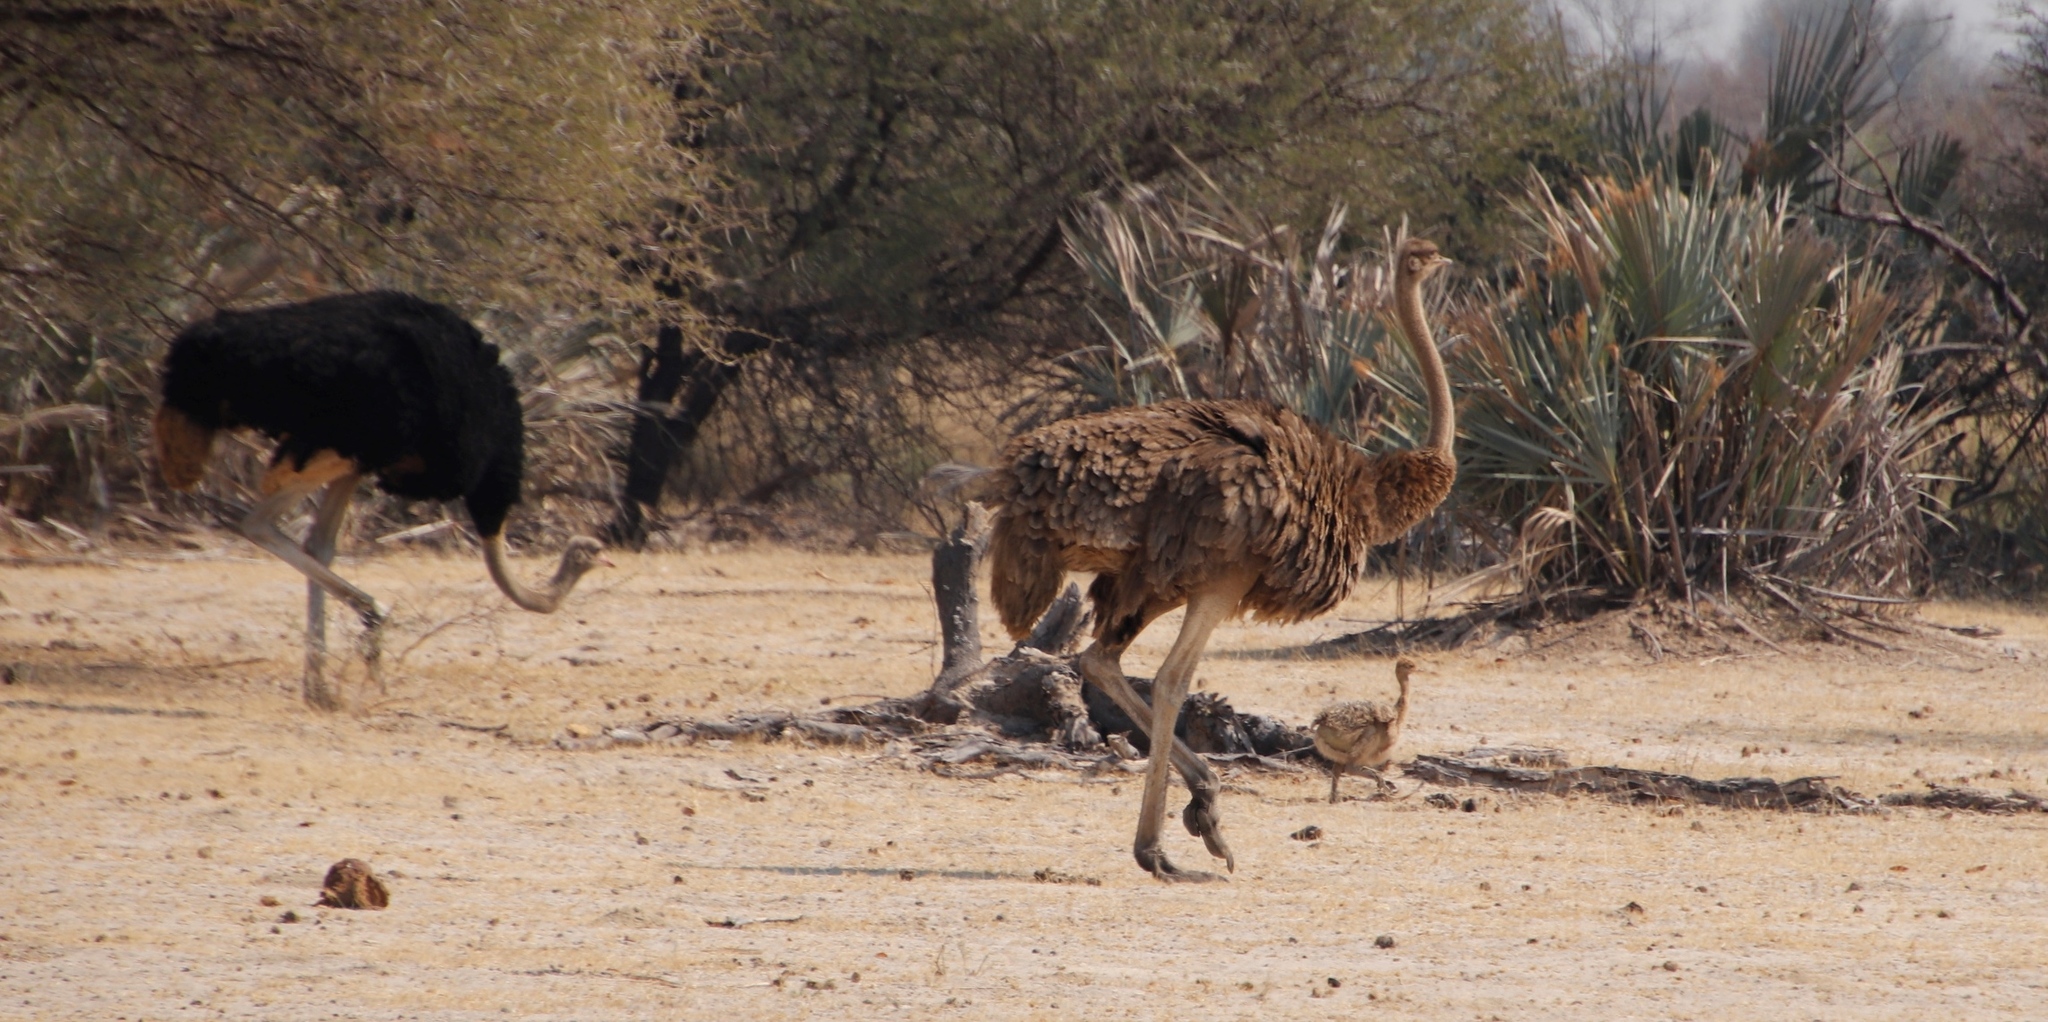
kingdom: Animalia
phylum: Chordata
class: Aves
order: Struthioniformes
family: Struthionidae
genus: Struthio
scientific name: Struthio camelus
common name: Common ostrich
